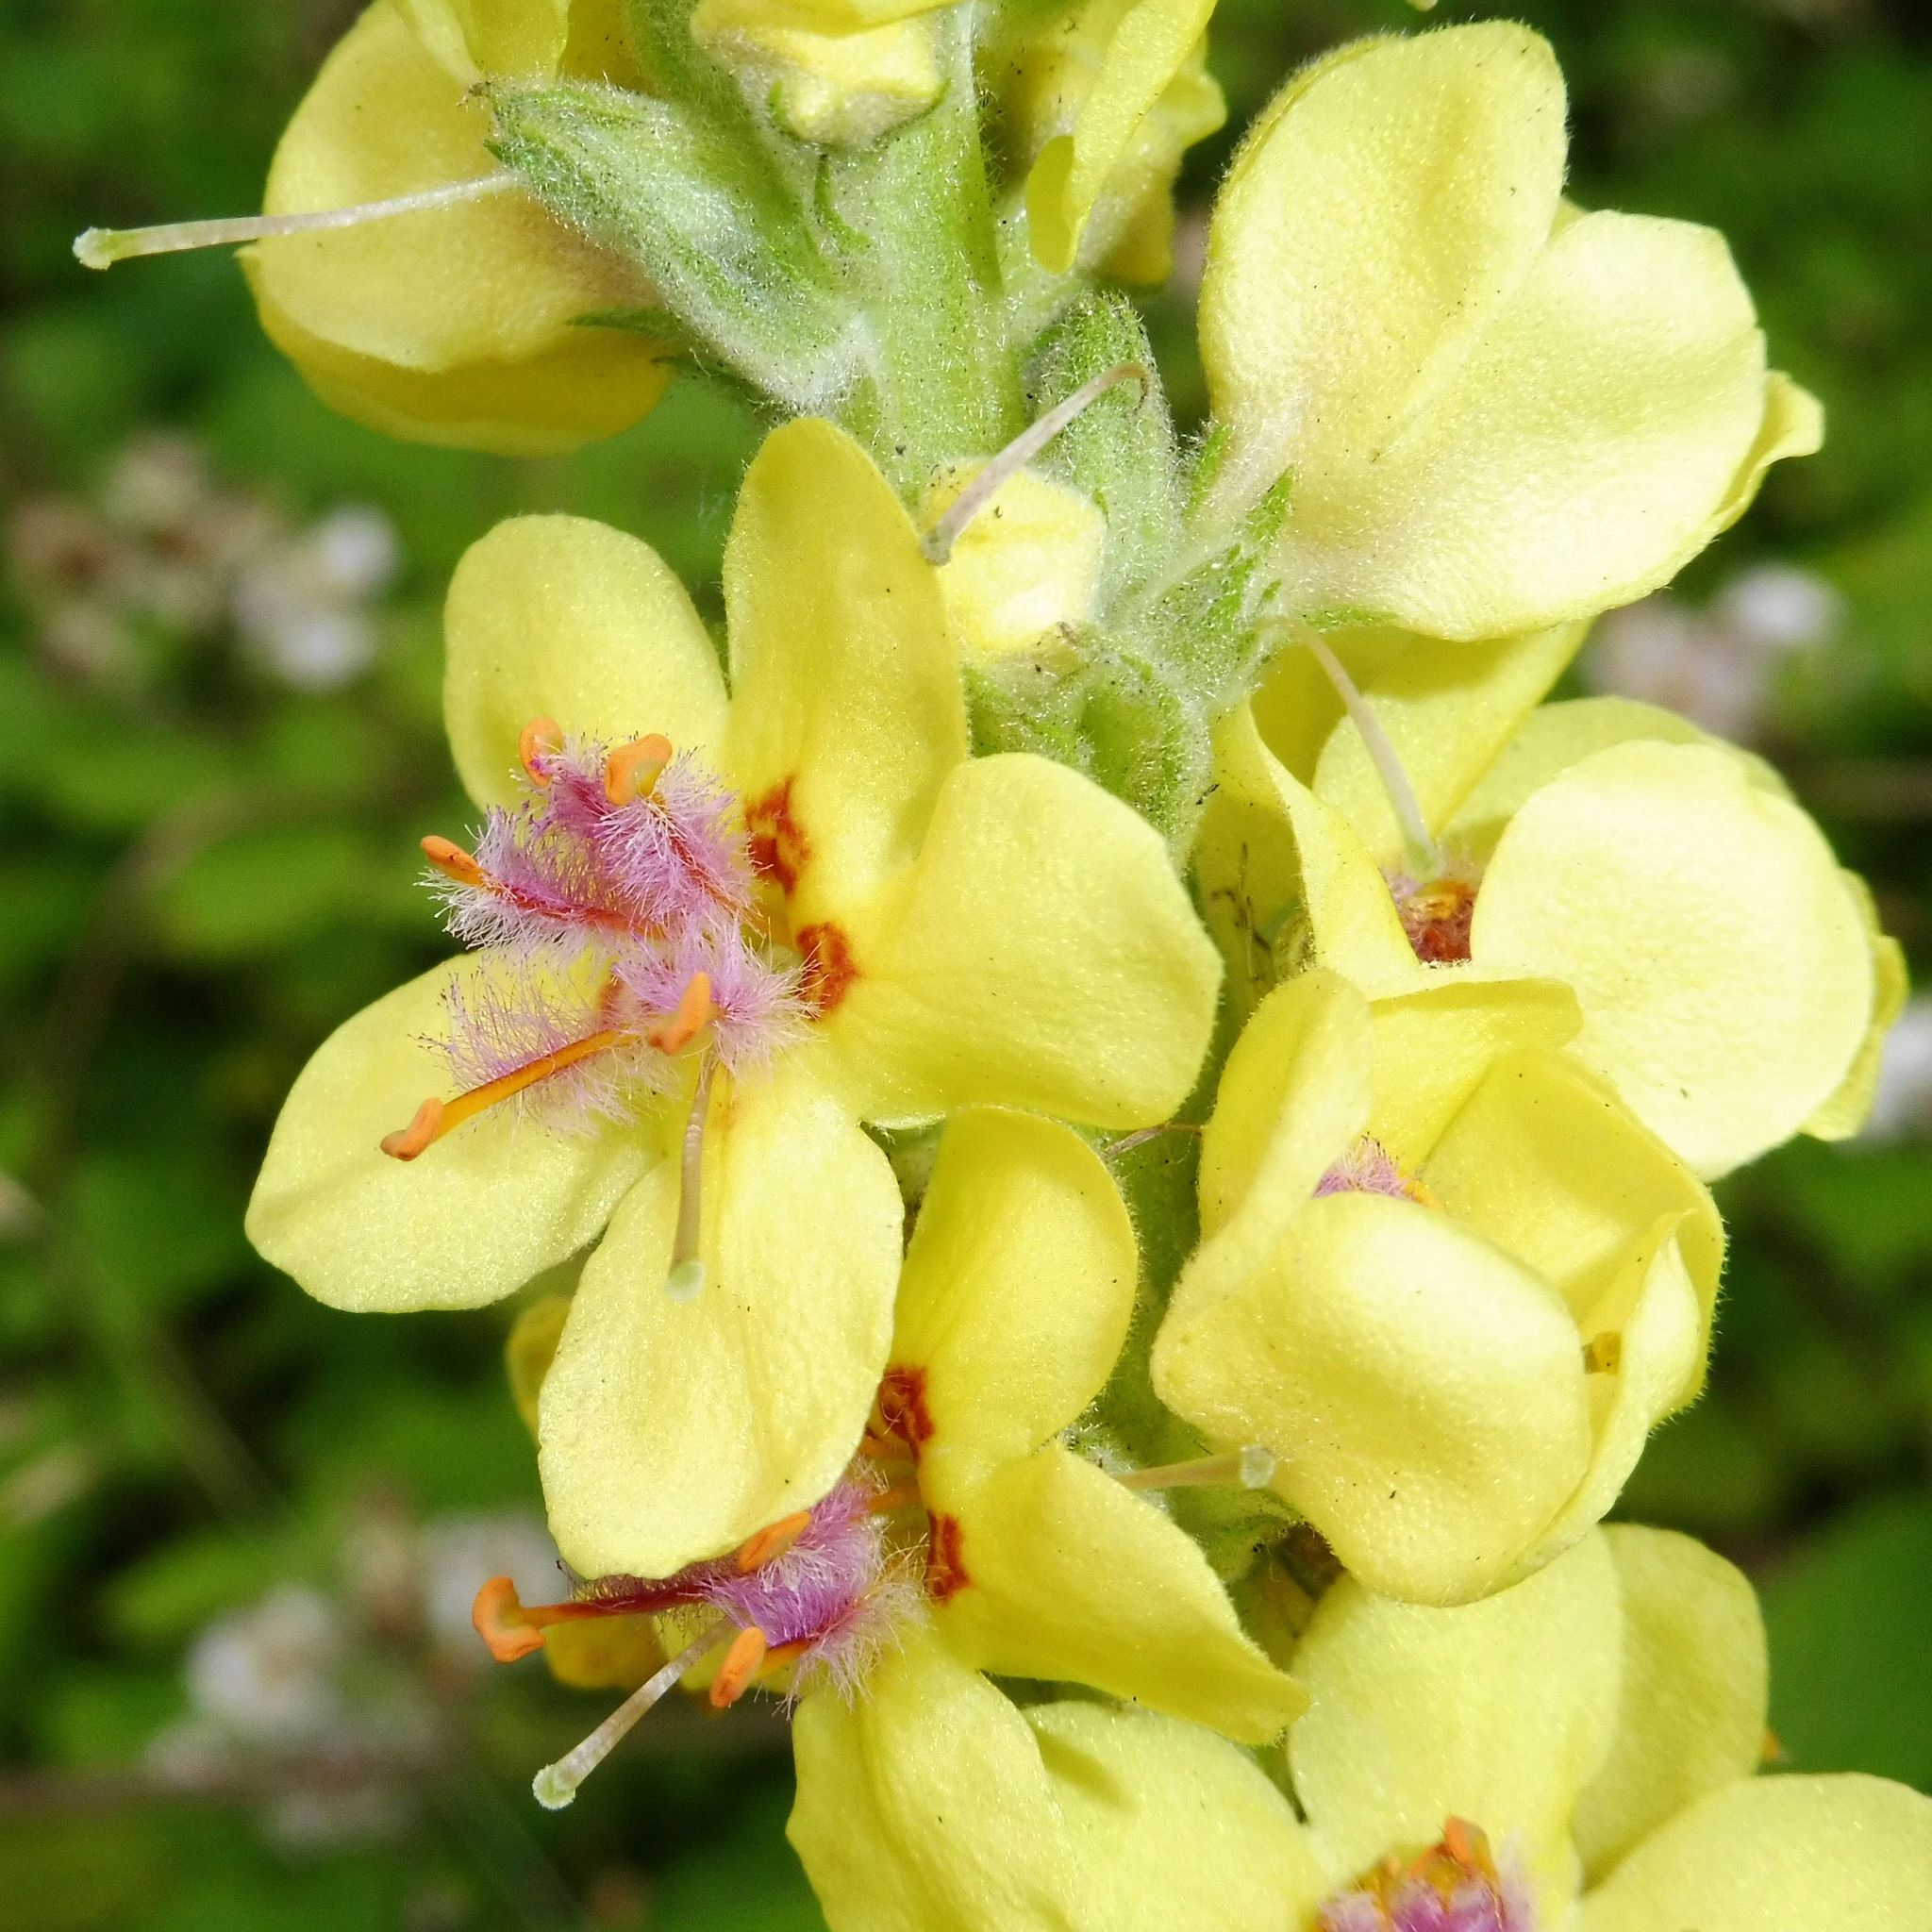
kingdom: Plantae
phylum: Tracheophyta
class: Magnoliopsida
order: Lamiales
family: Scrophulariaceae
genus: Verbascum
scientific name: Verbascum nigrum
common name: Dark mullein
